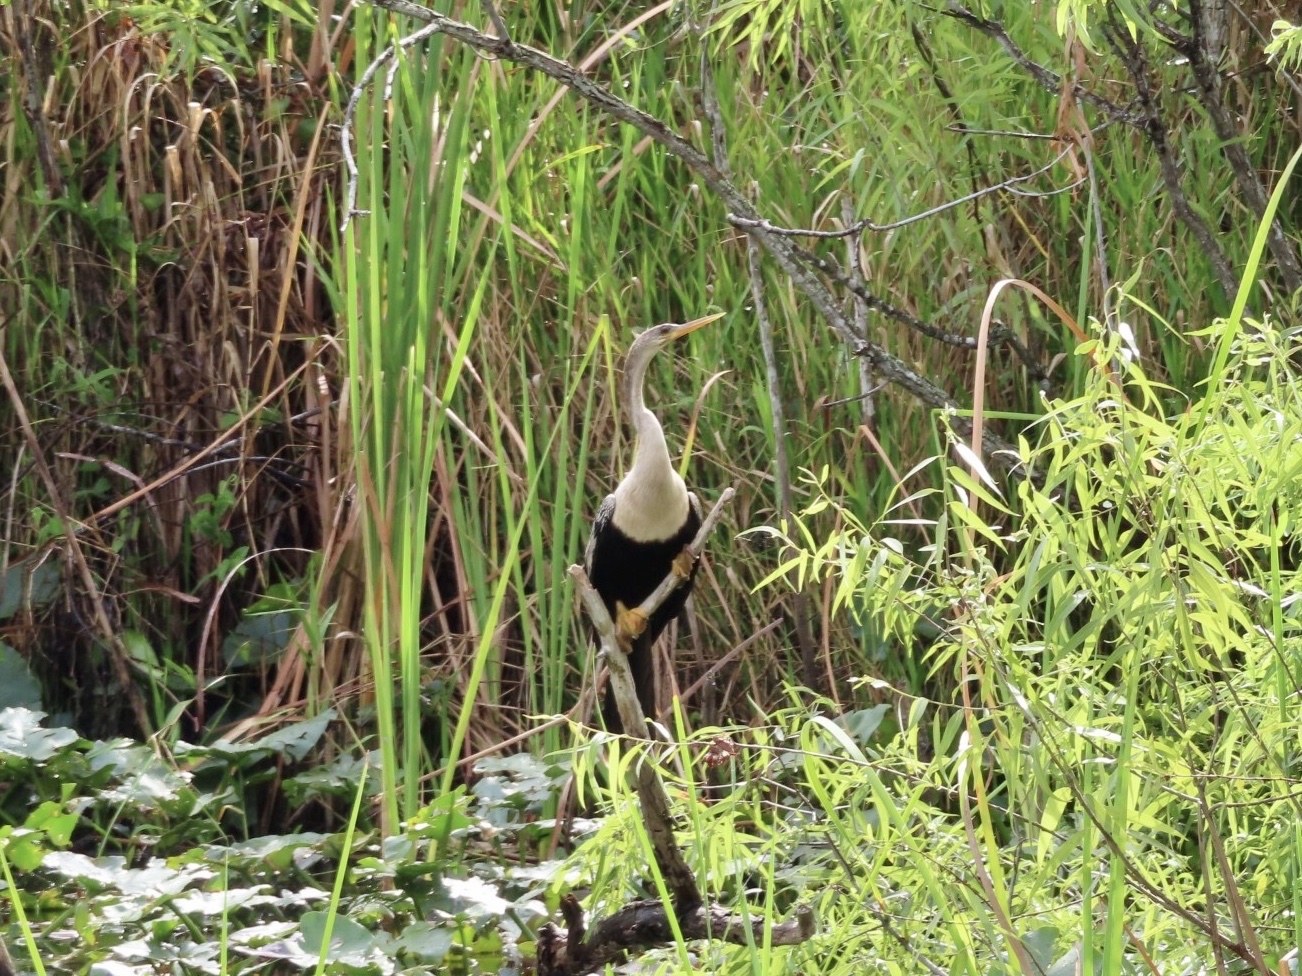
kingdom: Animalia
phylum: Chordata
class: Aves
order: Suliformes
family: Anhingidae
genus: Anhinga
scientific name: Anhinga anhinga
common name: Anhinga
